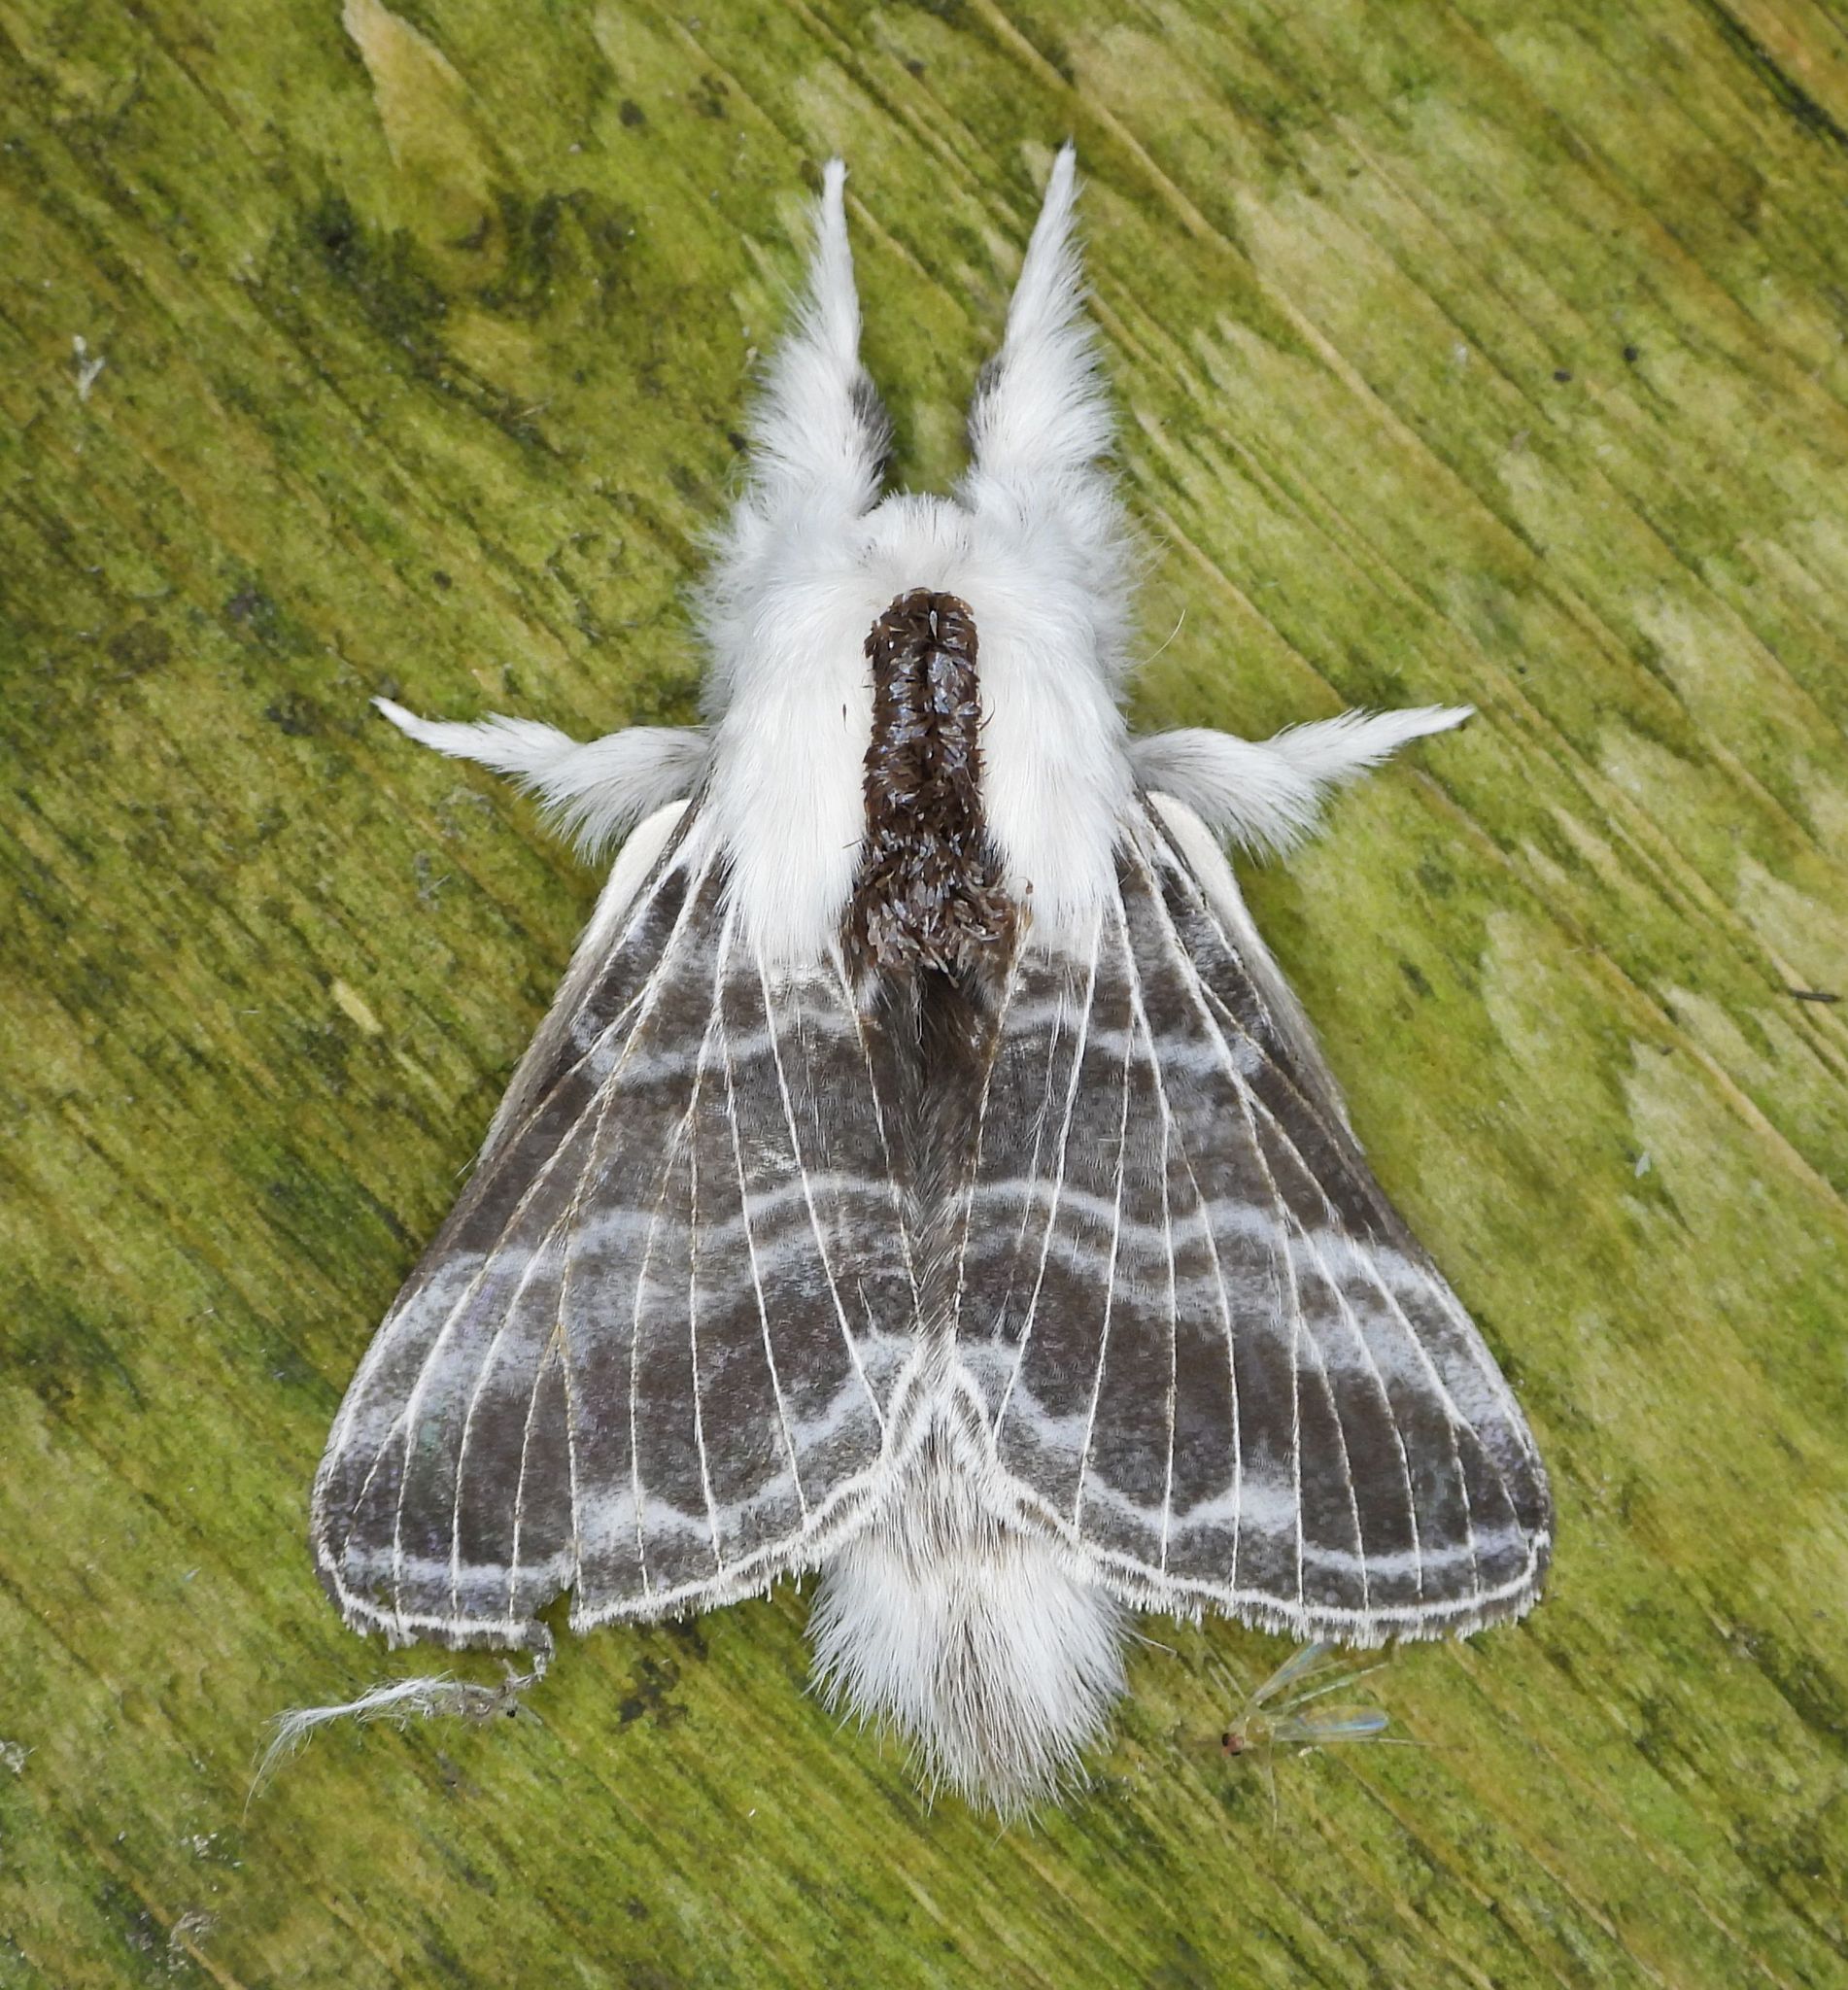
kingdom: Animalia
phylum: Arthropoda
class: Insecta
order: Lepidoptera
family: Lasiocampidae
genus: Tolype
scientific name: Tolype velleda
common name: Large tolype moth
